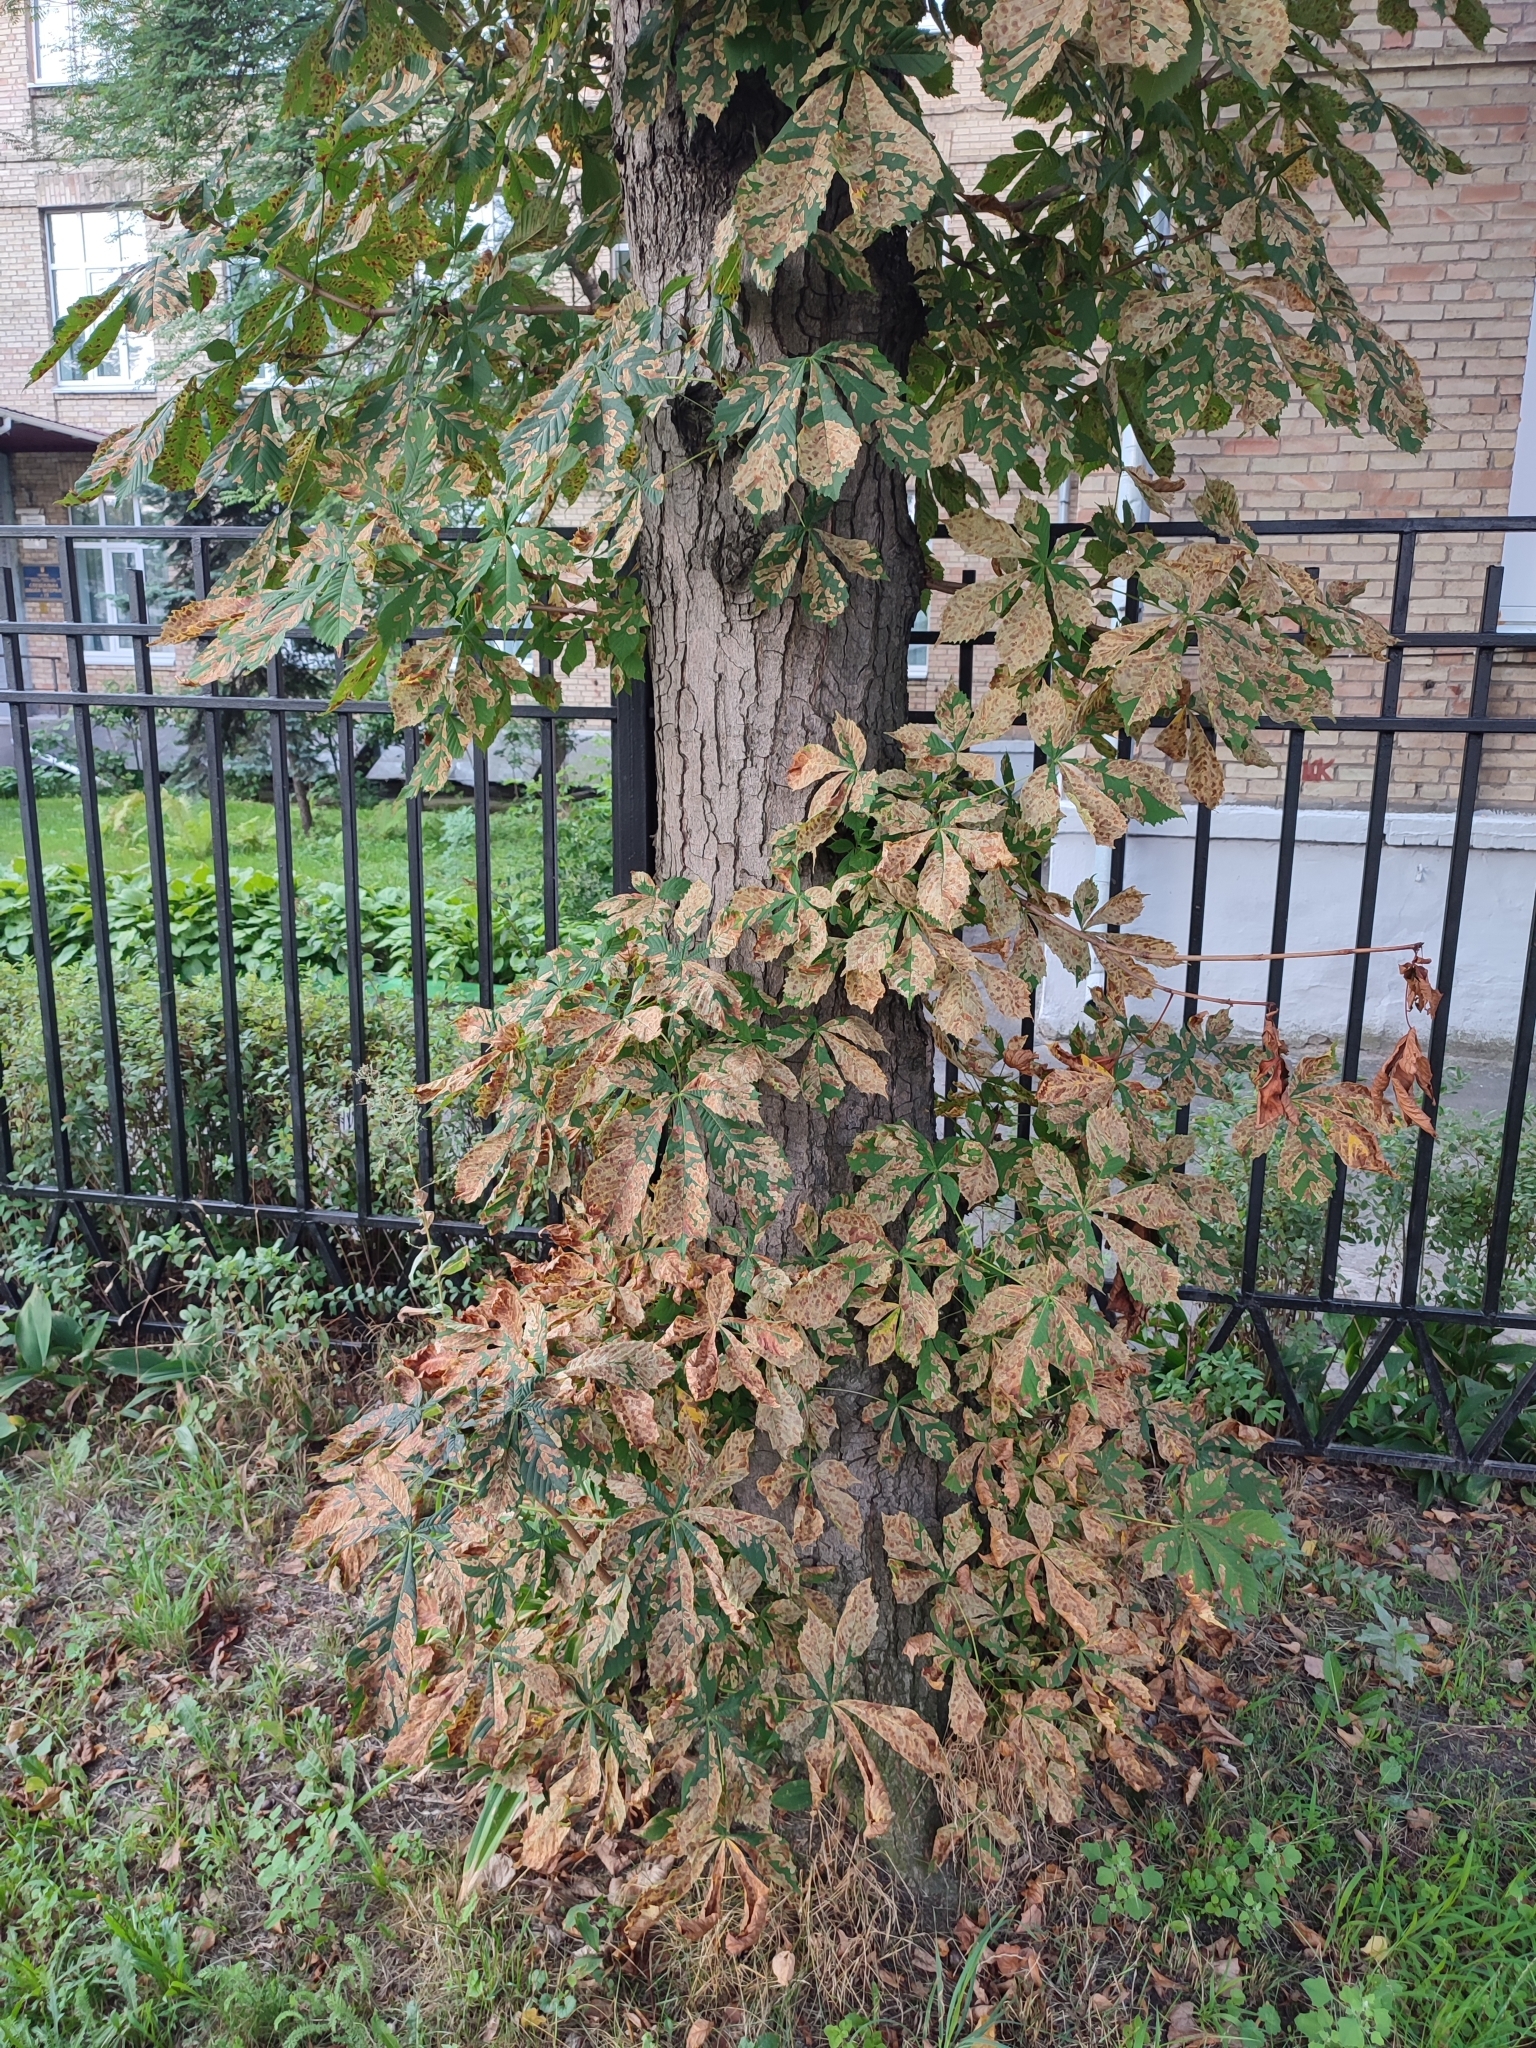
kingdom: Animalia
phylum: Arthropoda
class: Insecta
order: Lepidoptera
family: Gracillariidae
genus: Cameraria
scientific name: Cameraria ohridella
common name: Horse-chestnut leaf-miner
